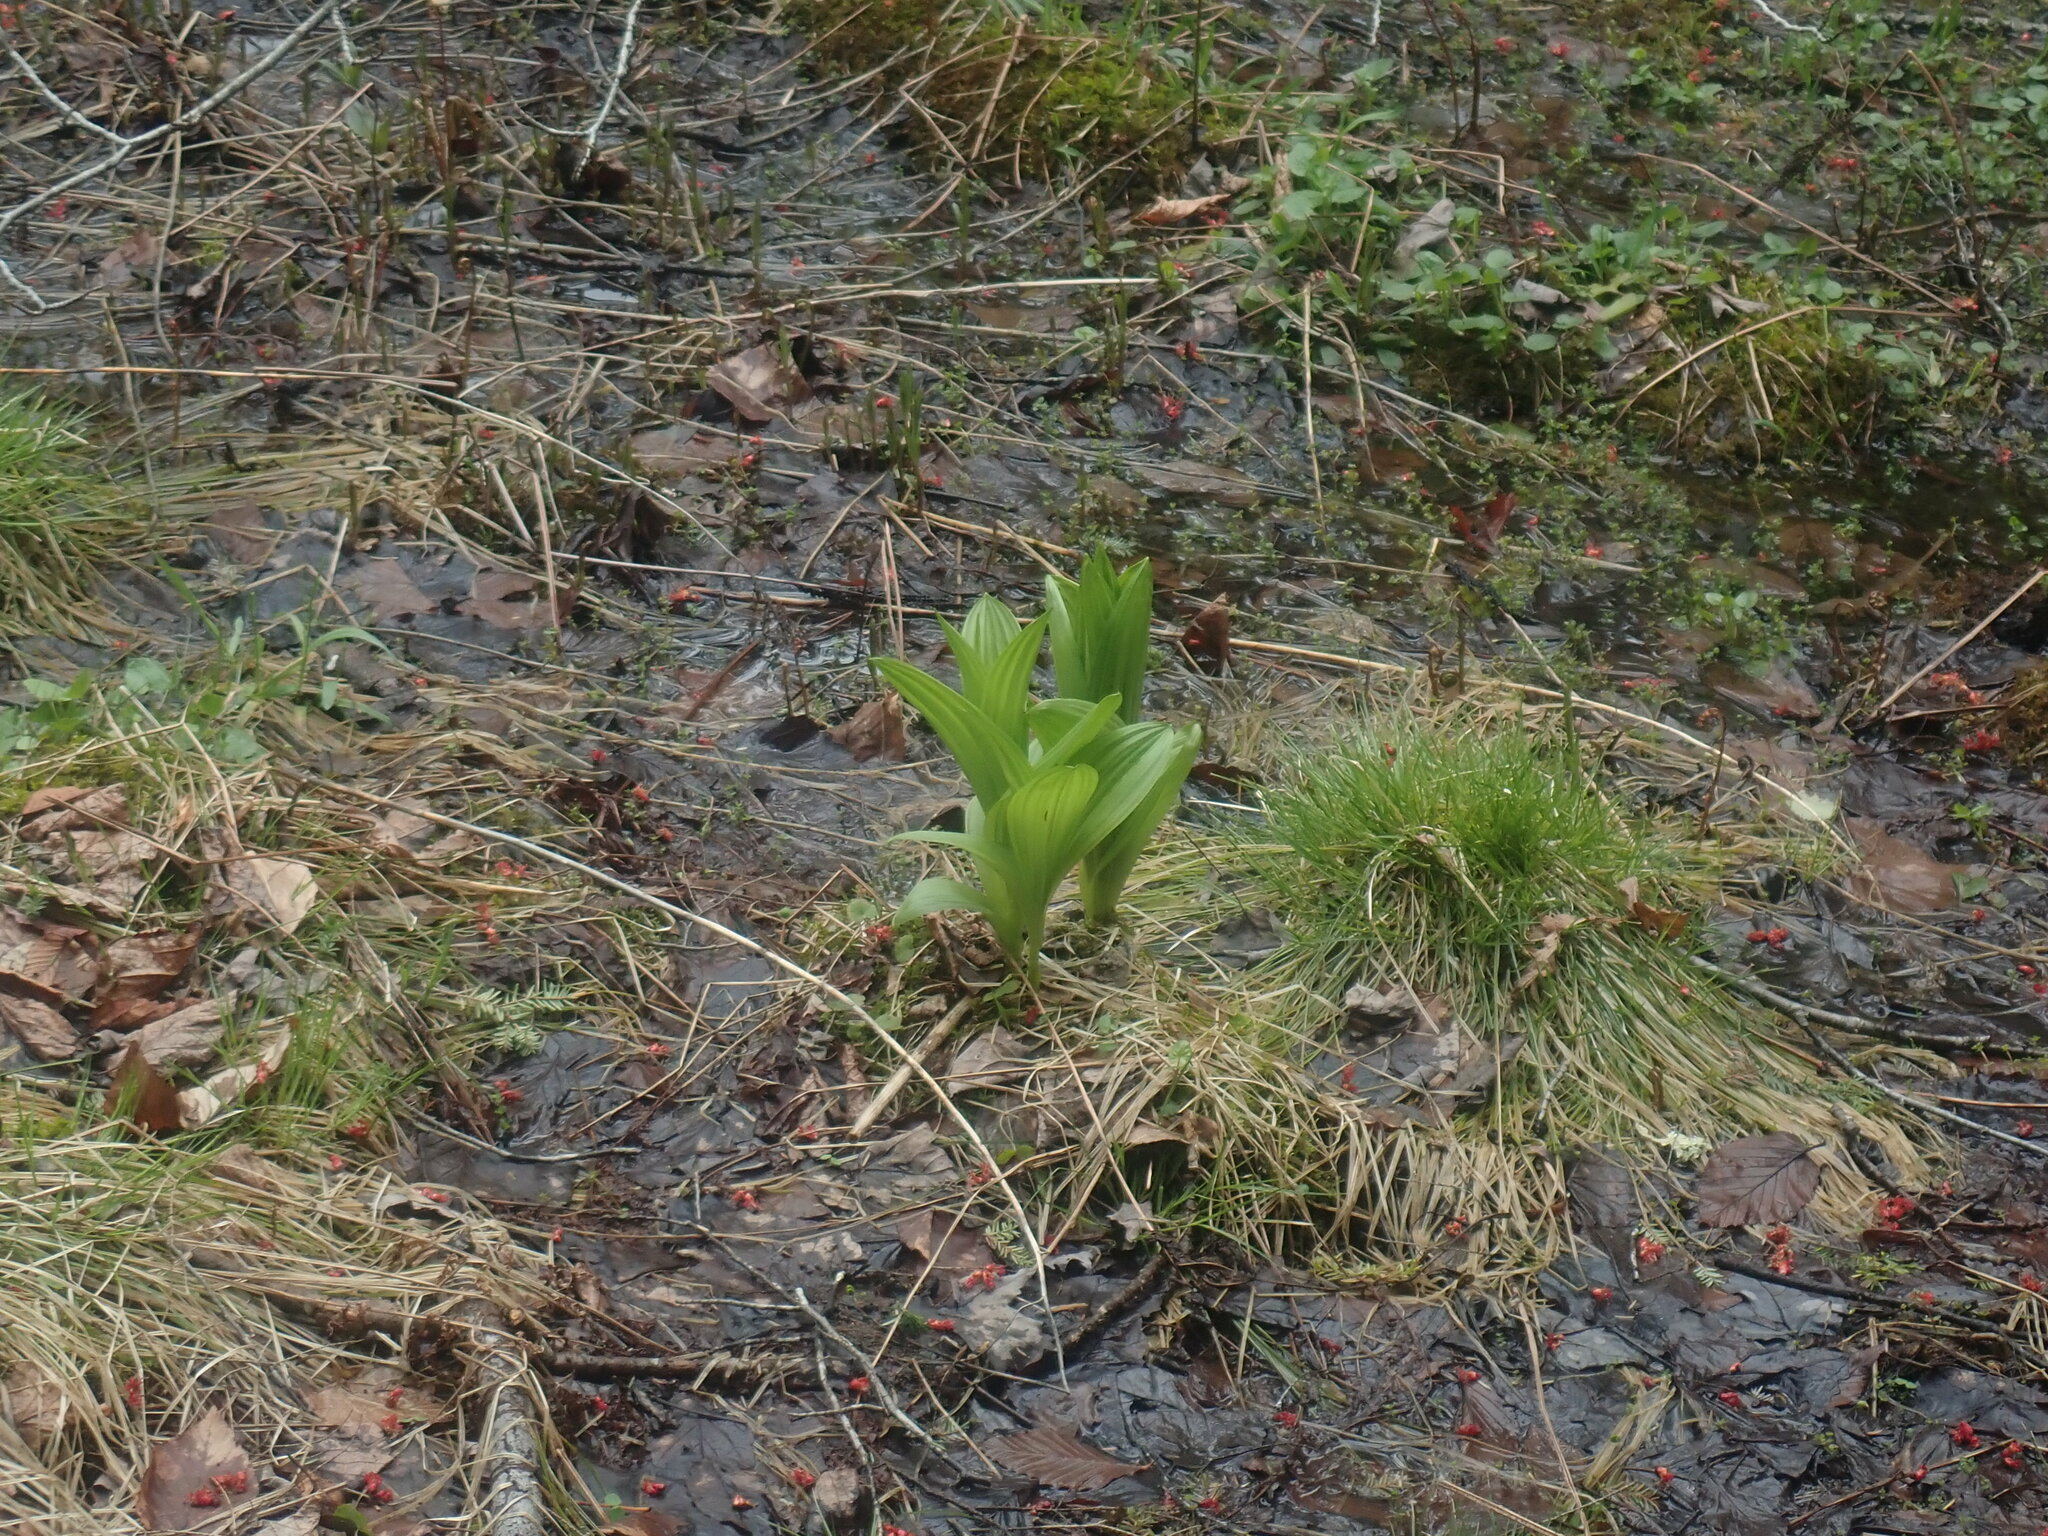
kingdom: Plantae
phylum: Tracheophyta
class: Liliopsida
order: Liliales
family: Melanthiaceae
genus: Veratrum
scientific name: Veratrum viride
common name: American false hellebore
